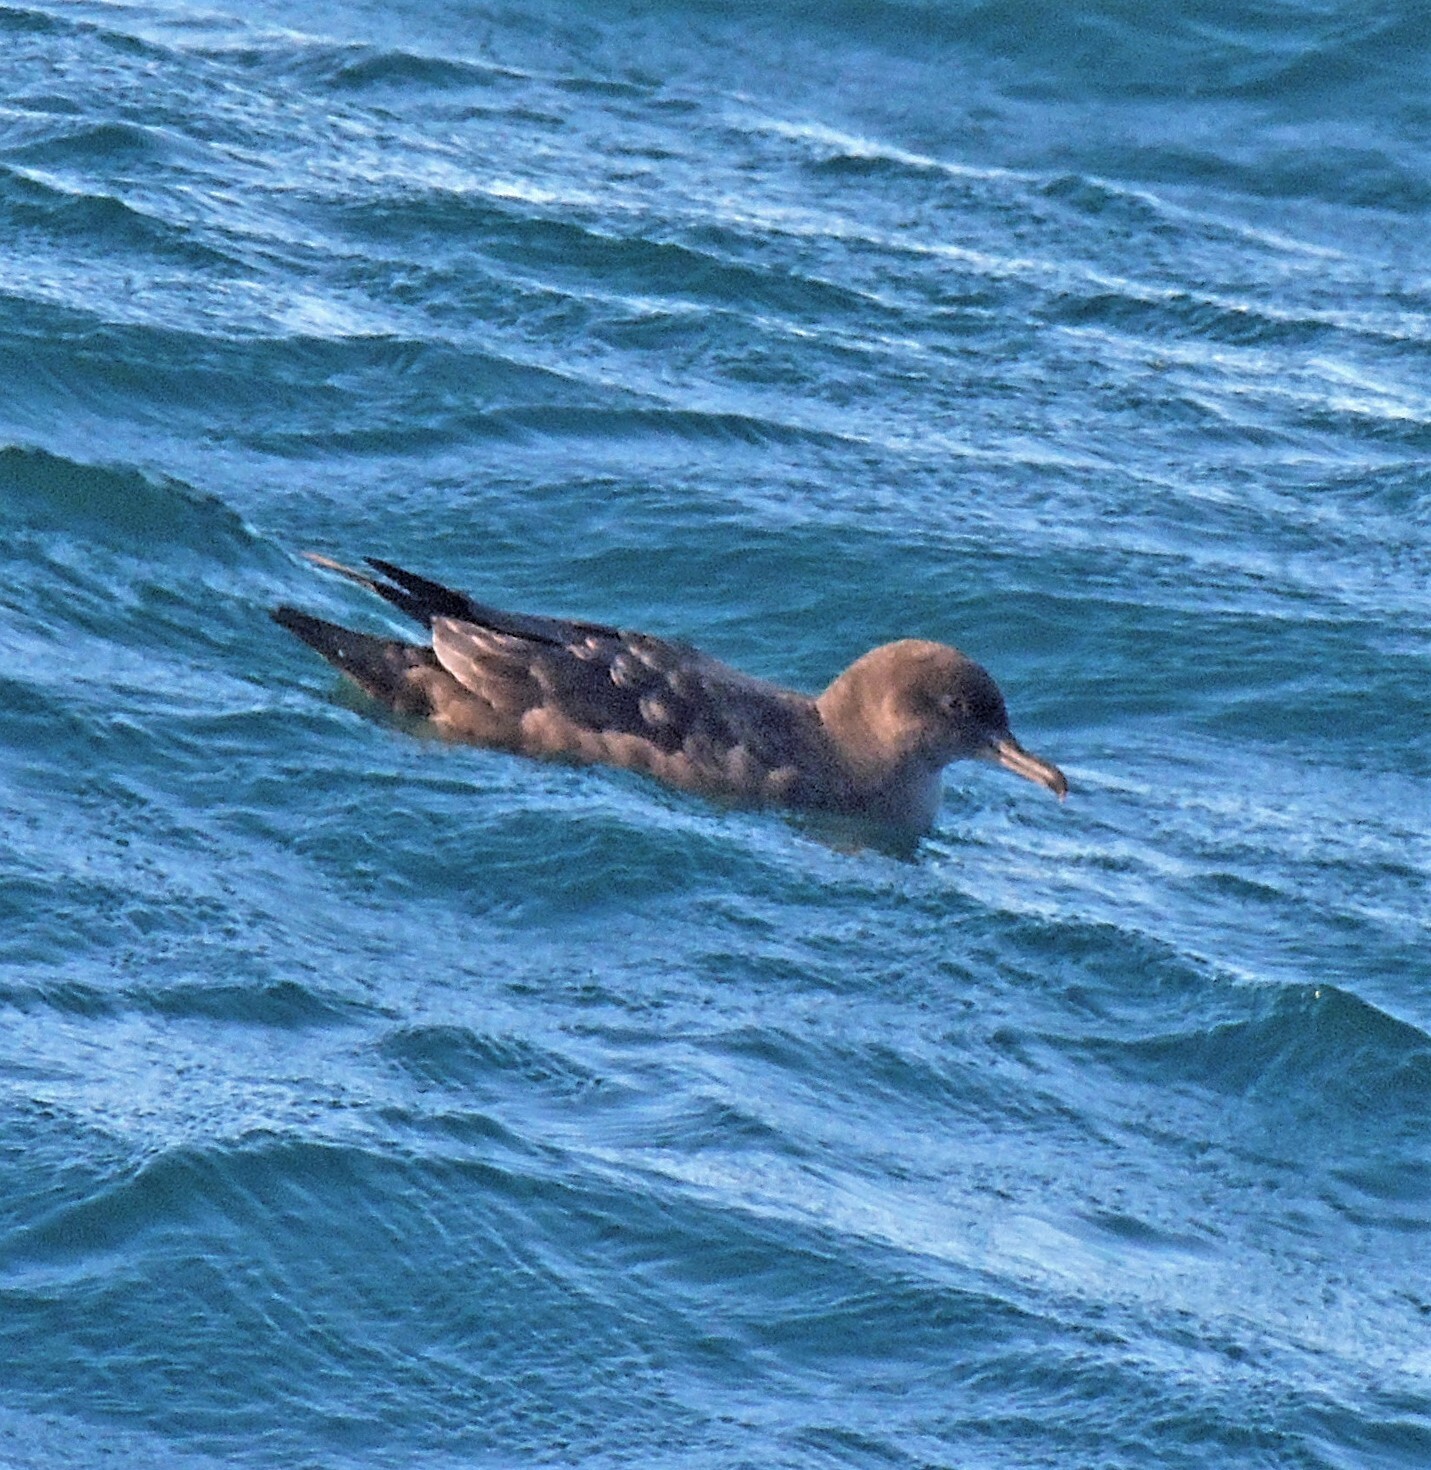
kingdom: Animalia
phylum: Chordata
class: Aves
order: Procellariiformes
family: Procellariidae
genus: Puffinus
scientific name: Puffinus griseus
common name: Sooty shearwater
